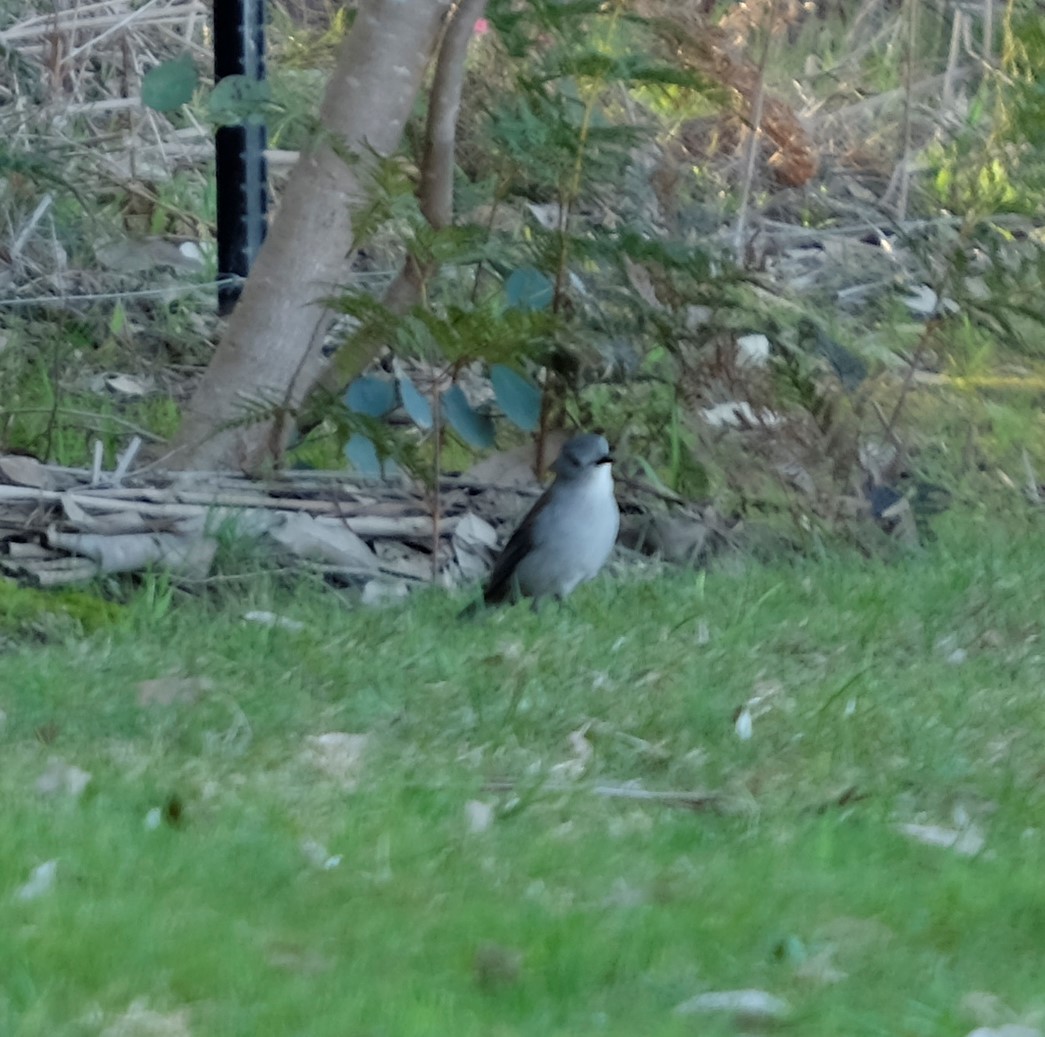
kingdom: Animalia
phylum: Chordata
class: Aves
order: Passeriformes
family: Pachycephalidae
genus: Colluricincla
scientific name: Colluricincla harmonica
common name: Grey shrikethrush
